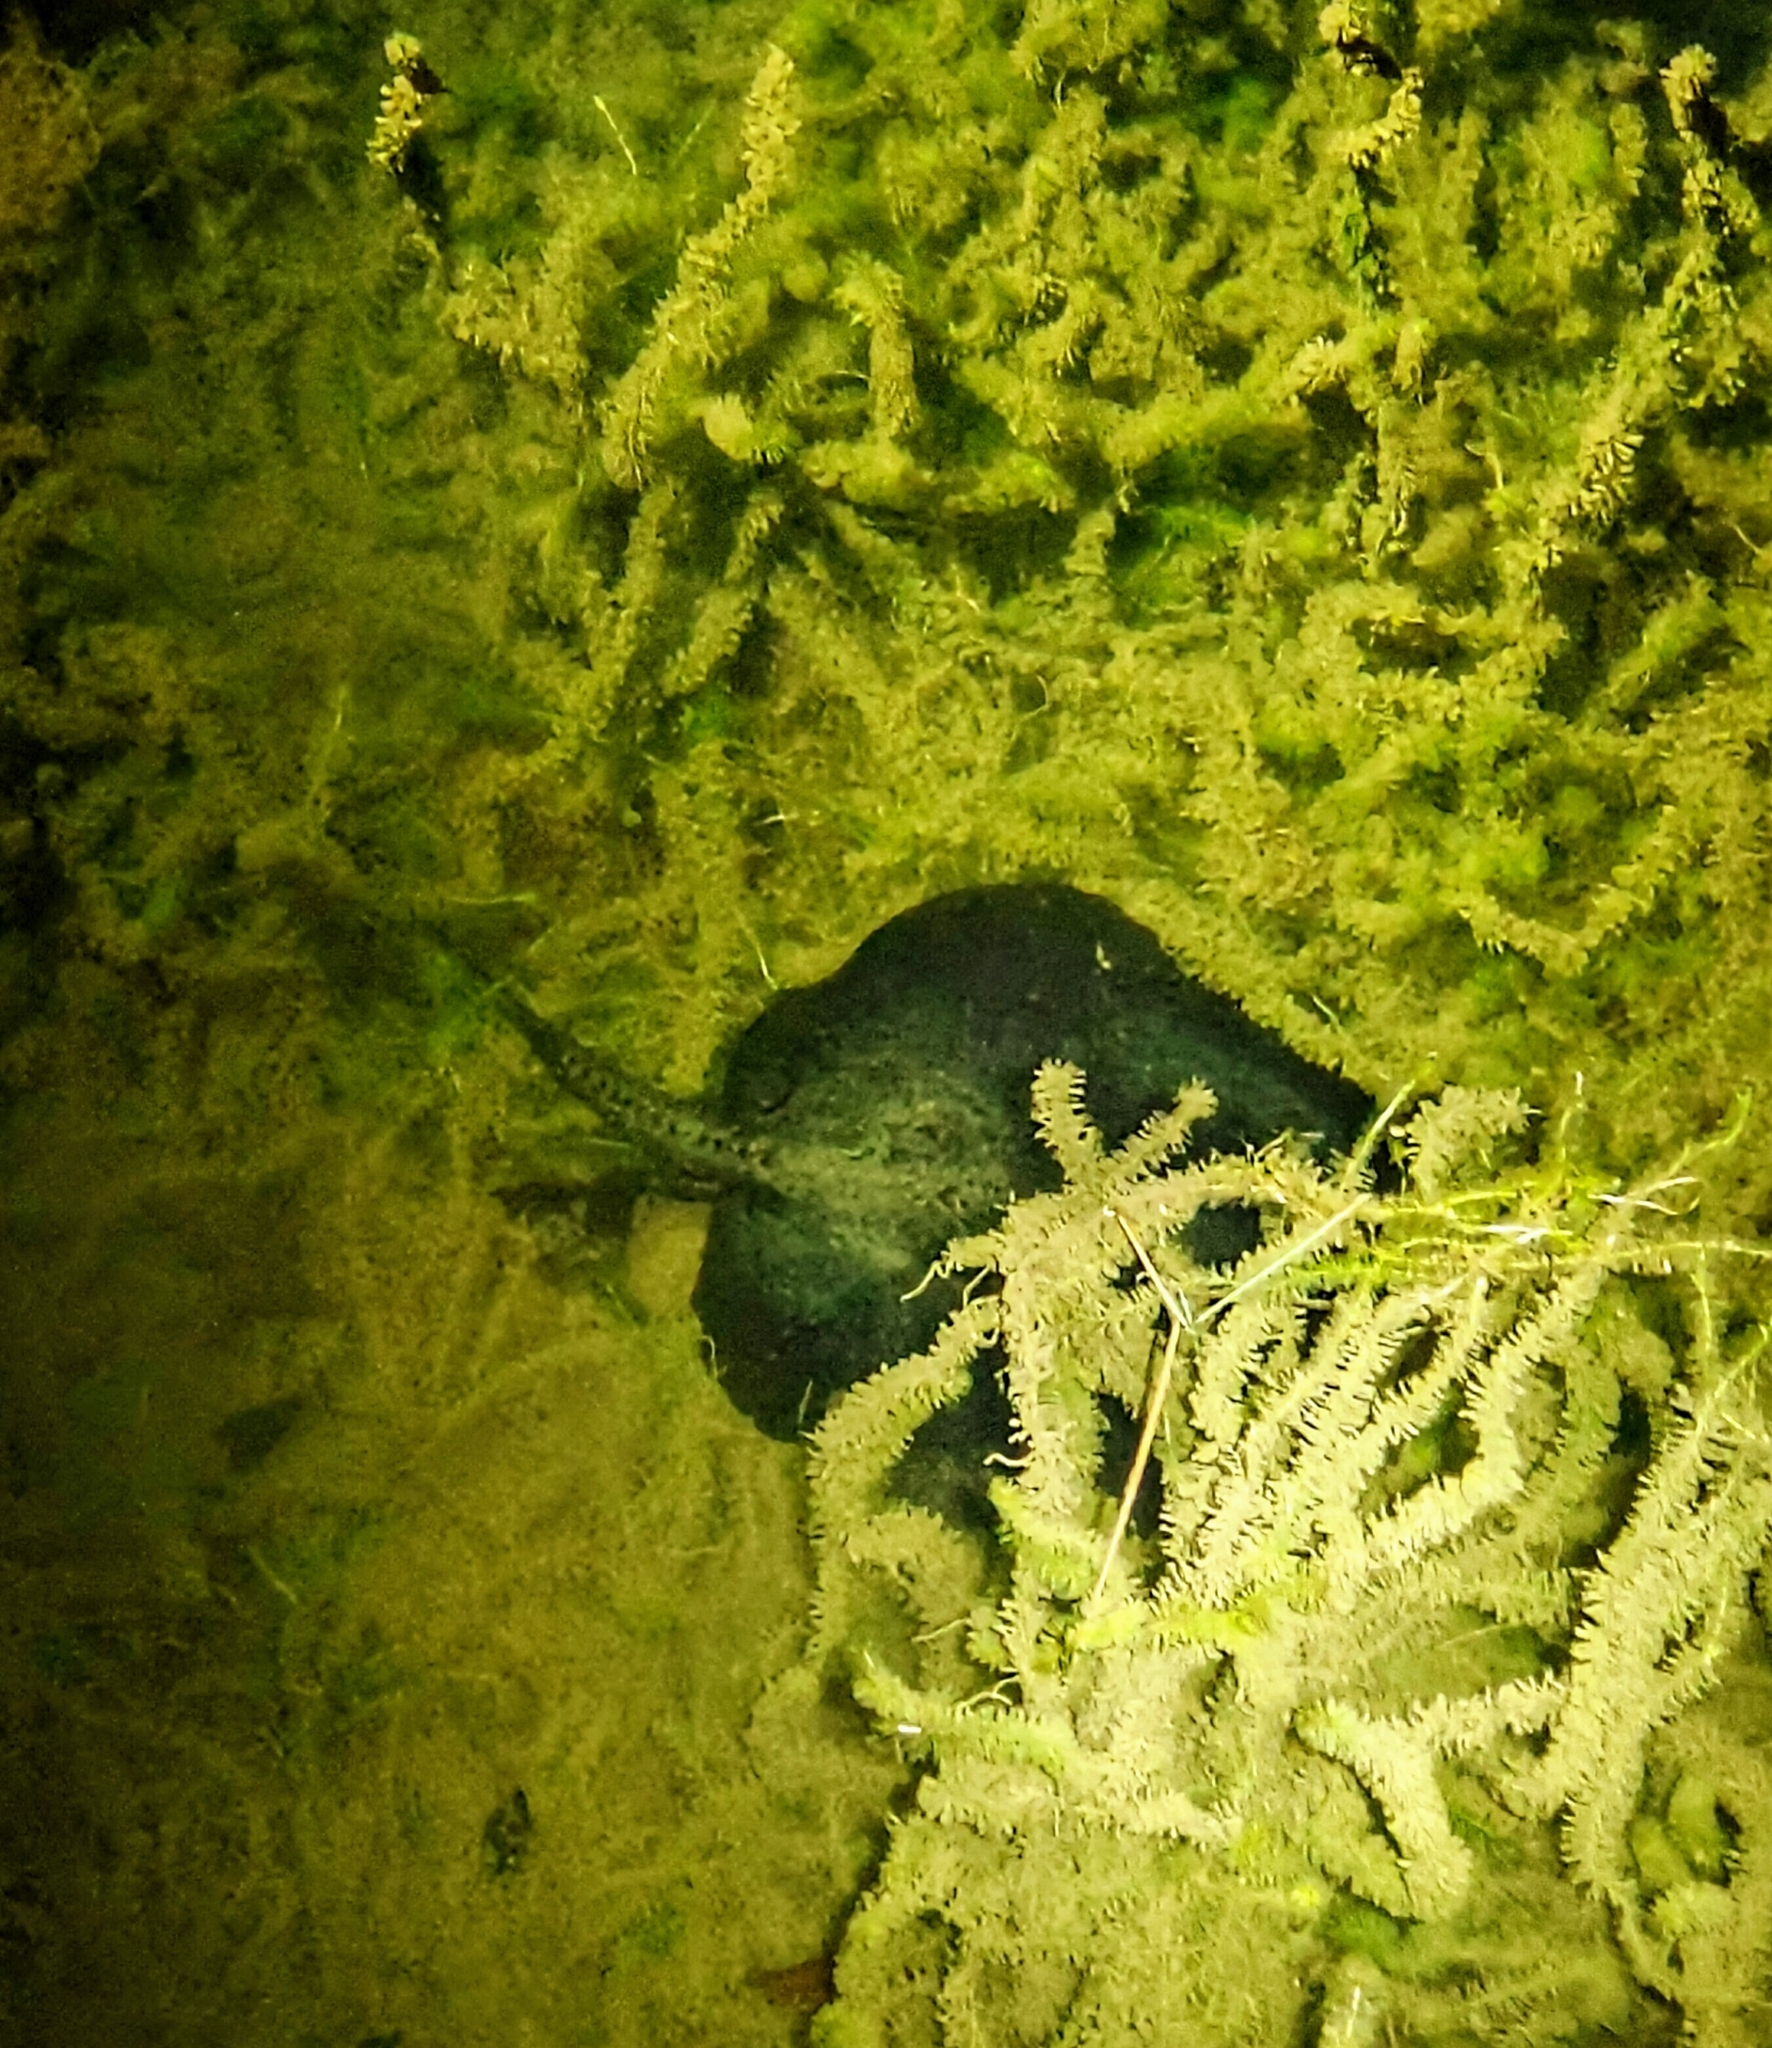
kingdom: Animalia
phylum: Chordata
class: Elasmobranchii
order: Myliobatiformes
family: Potamotrygonidae
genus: Potamotrygon
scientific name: Potamotrygon motoro
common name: South american freshwater stingray
